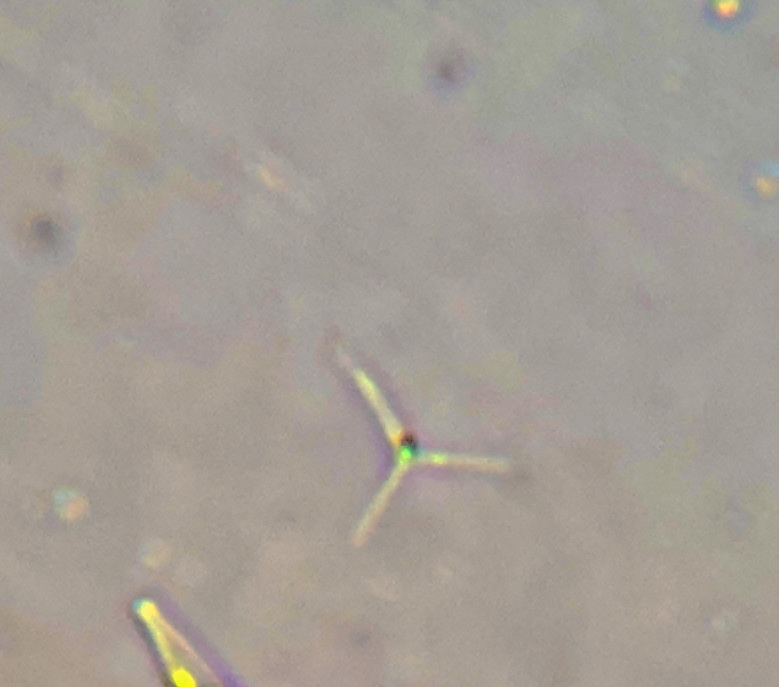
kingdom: Plantae
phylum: Chlorophyta
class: Trebouxiophyceae
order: Chlorellales
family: Chlorellaceae
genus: Actinastrum
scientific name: Actinastrum hantzschii
